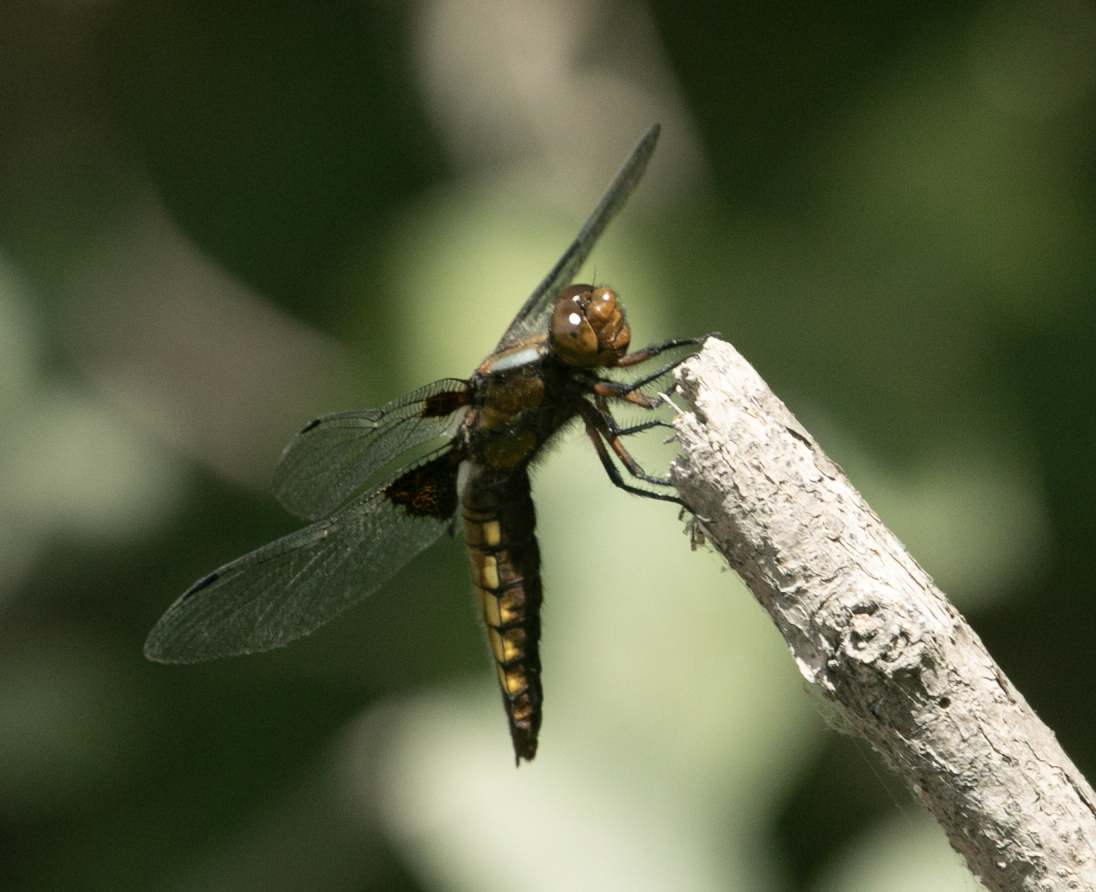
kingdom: Animalia
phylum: Arthropoda
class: Insecta
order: Odonata
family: Libellulidae
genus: Libellula
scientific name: Libellula depressa
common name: Broad-bodied chaser
